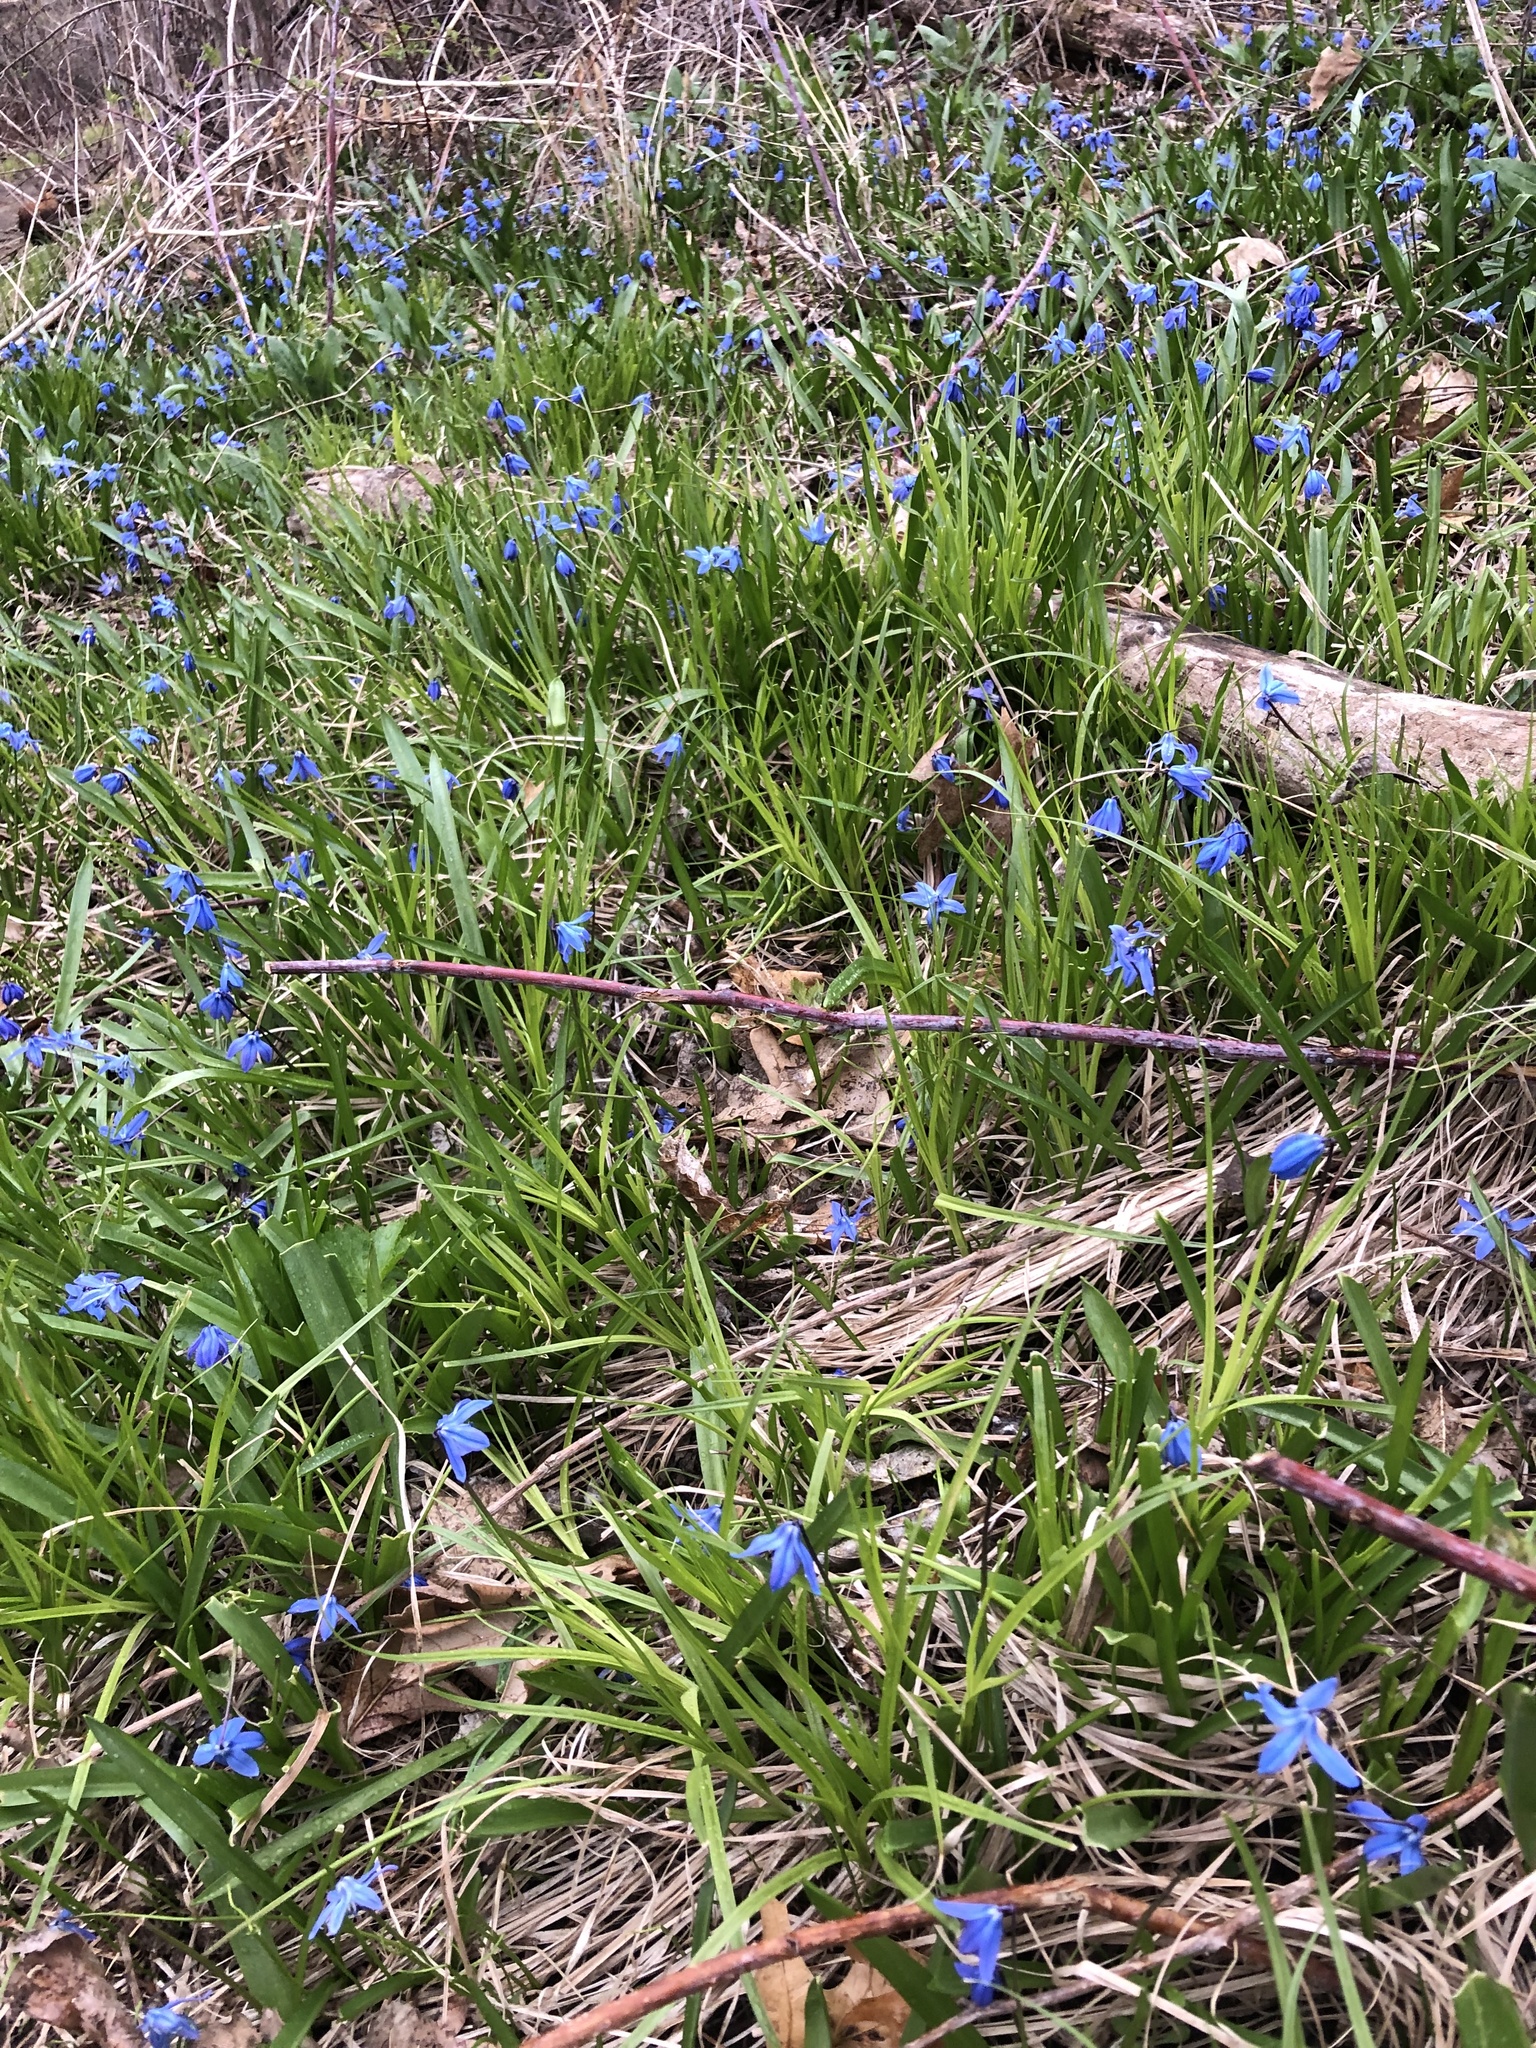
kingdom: Plantae
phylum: Tracheophyta
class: Liliopsida
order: Asparagales
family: Asparagaceae
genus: Scilla
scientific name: Scilla siberica
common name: Siberian squill
